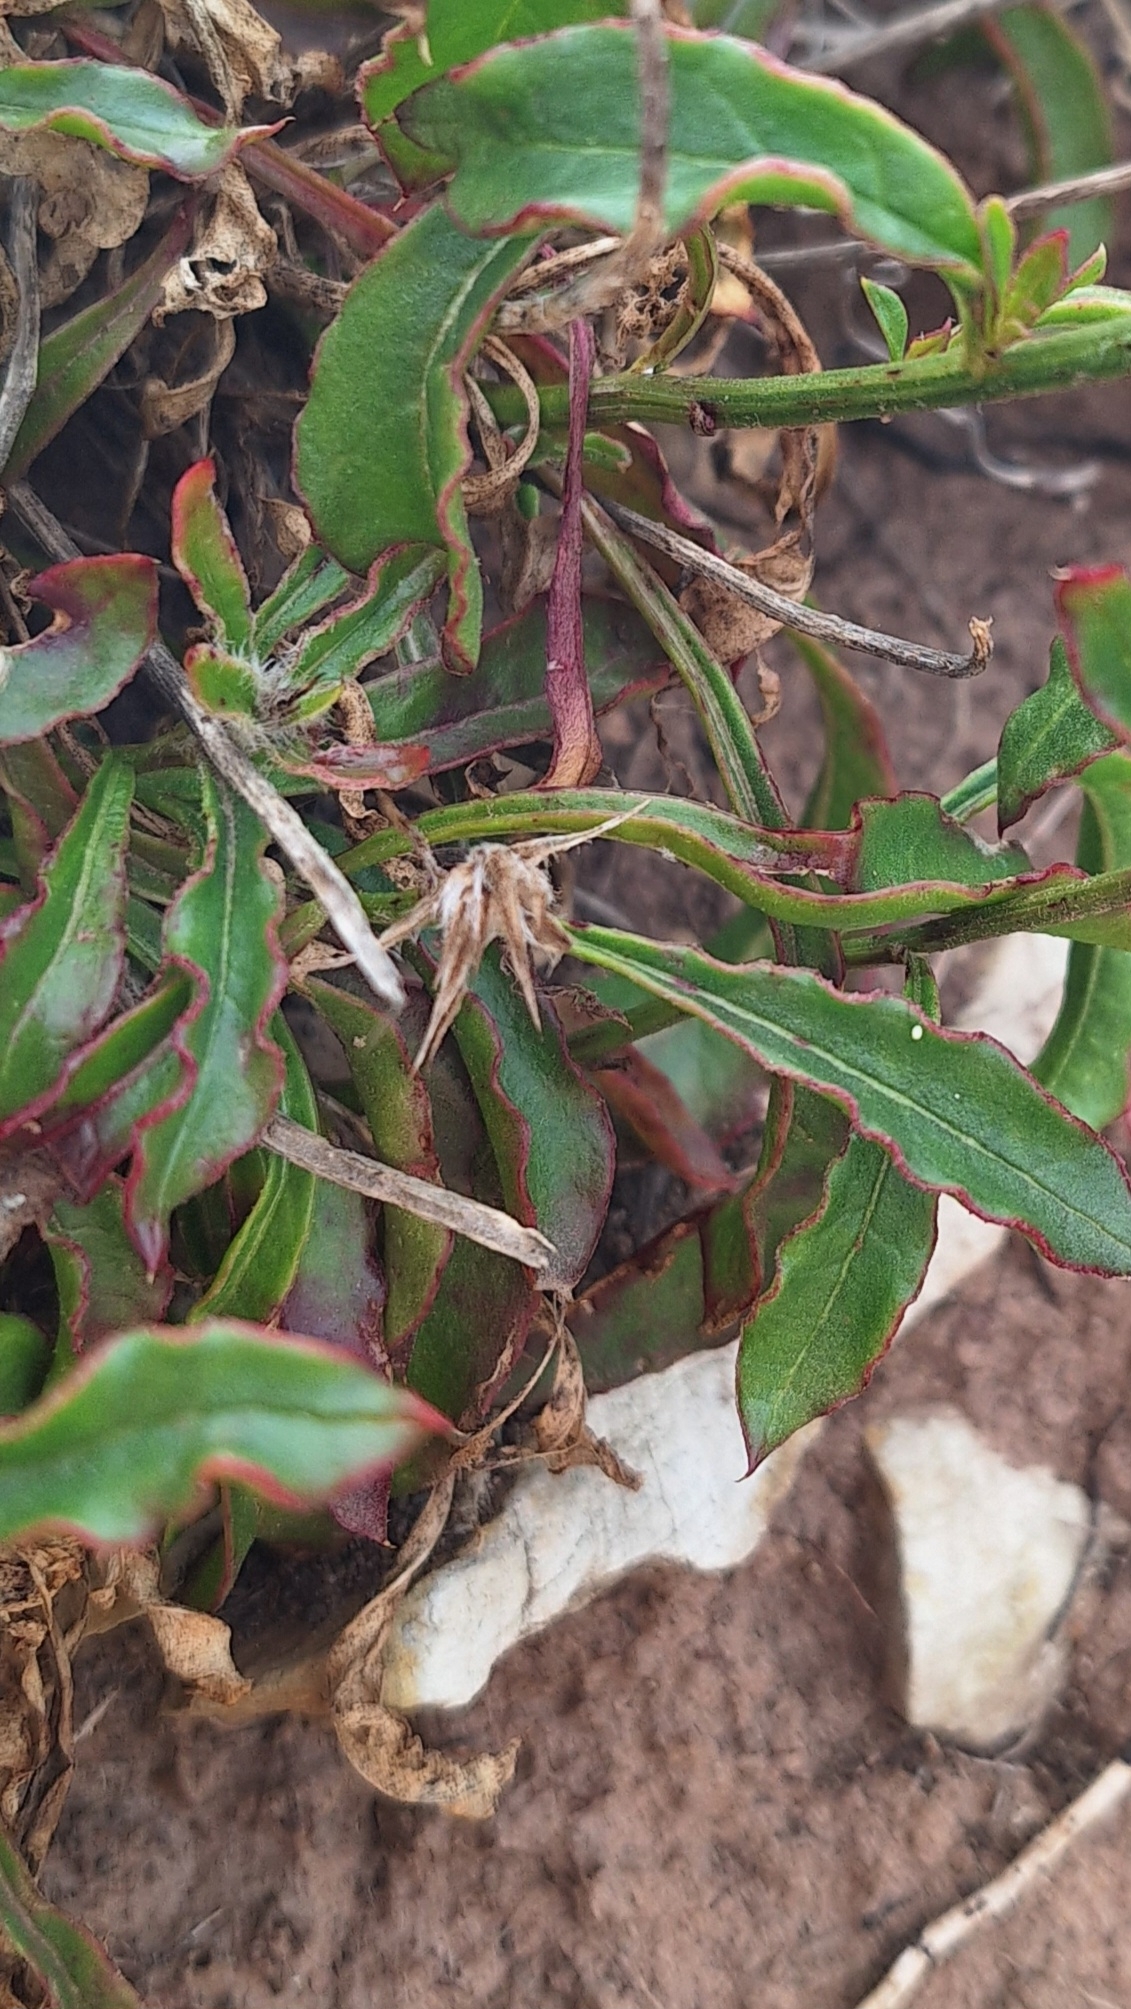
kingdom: Plantae
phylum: Tracheophyta
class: Magnoliopsida
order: Caryophyllales
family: Amaranthaceae
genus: Ptilotus
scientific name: Ptilotus angustifolius
